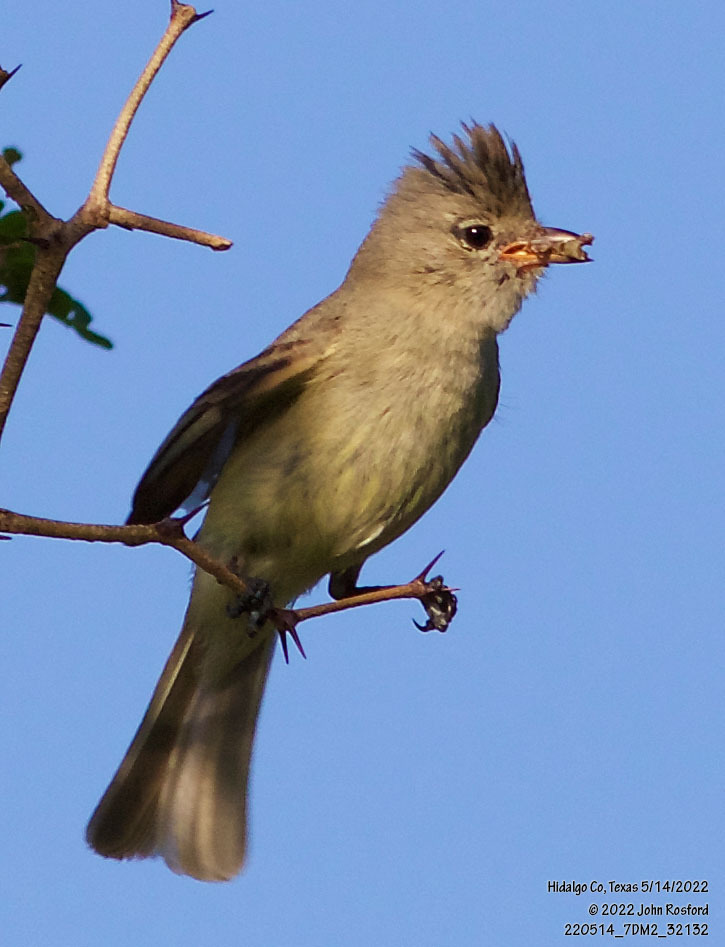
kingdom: Animalia
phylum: Chordata
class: Aves
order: Passeriformes
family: Tyrannidae
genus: Camptostoma
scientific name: Camptostoma imberbe
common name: Northern beardless-tyrannulet
